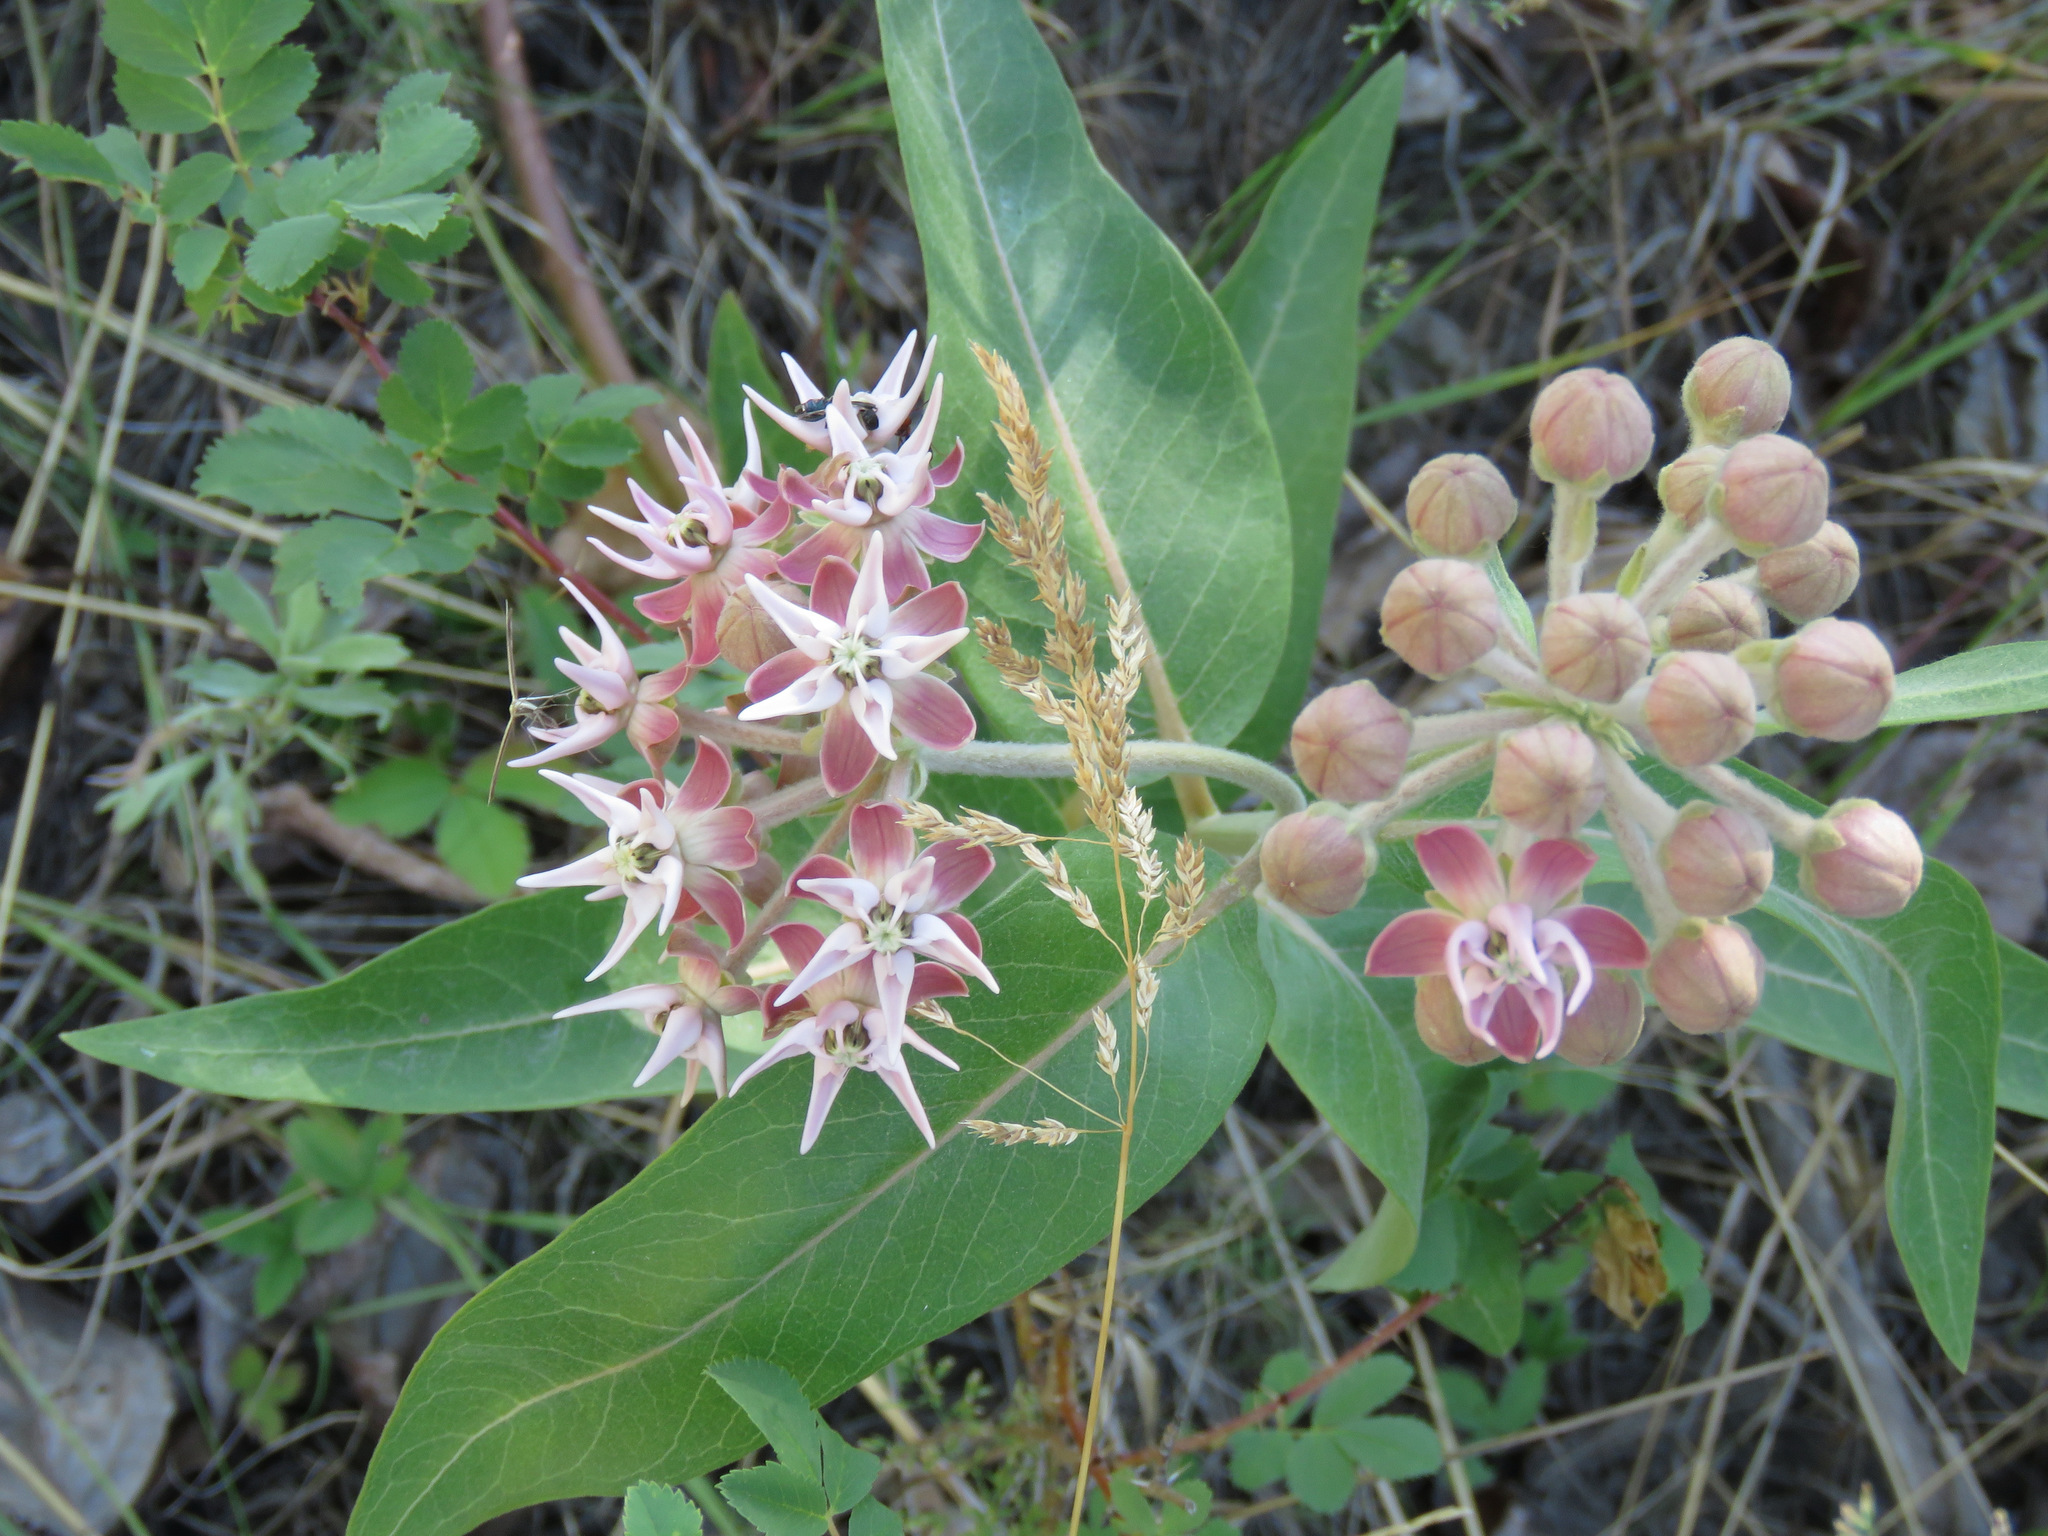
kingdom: Plantae
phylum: Tracheophyta
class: Magnoliopsida
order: Gentianales
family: Apocynaceae
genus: Asclepias
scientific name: Asclepias speciosa
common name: Showy milkweed
